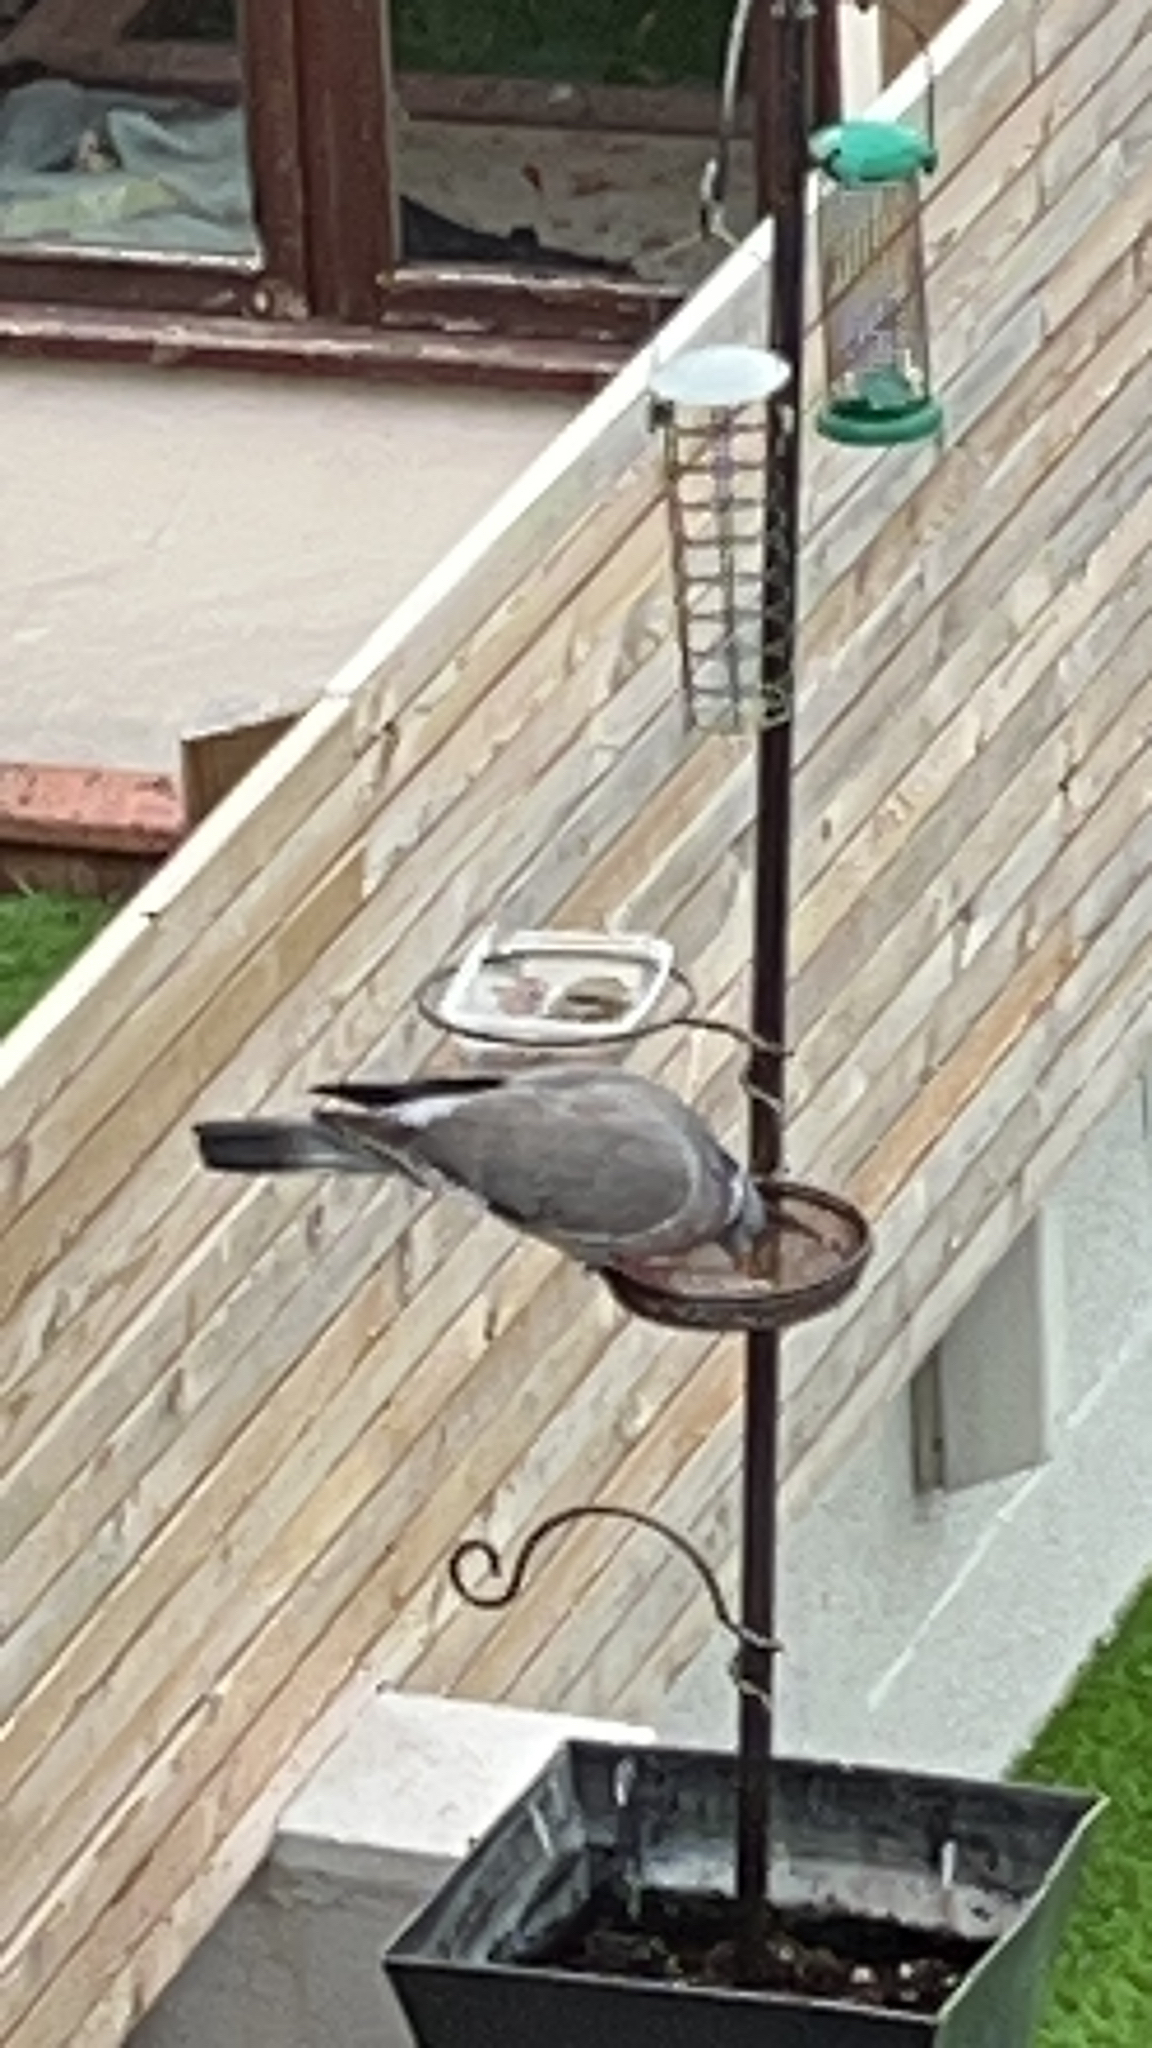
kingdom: Animalia
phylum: Chordata
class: Aves
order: Columbiformes
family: Columbidae
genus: Columba
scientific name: Columba palumbus
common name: Common wood pigeon
